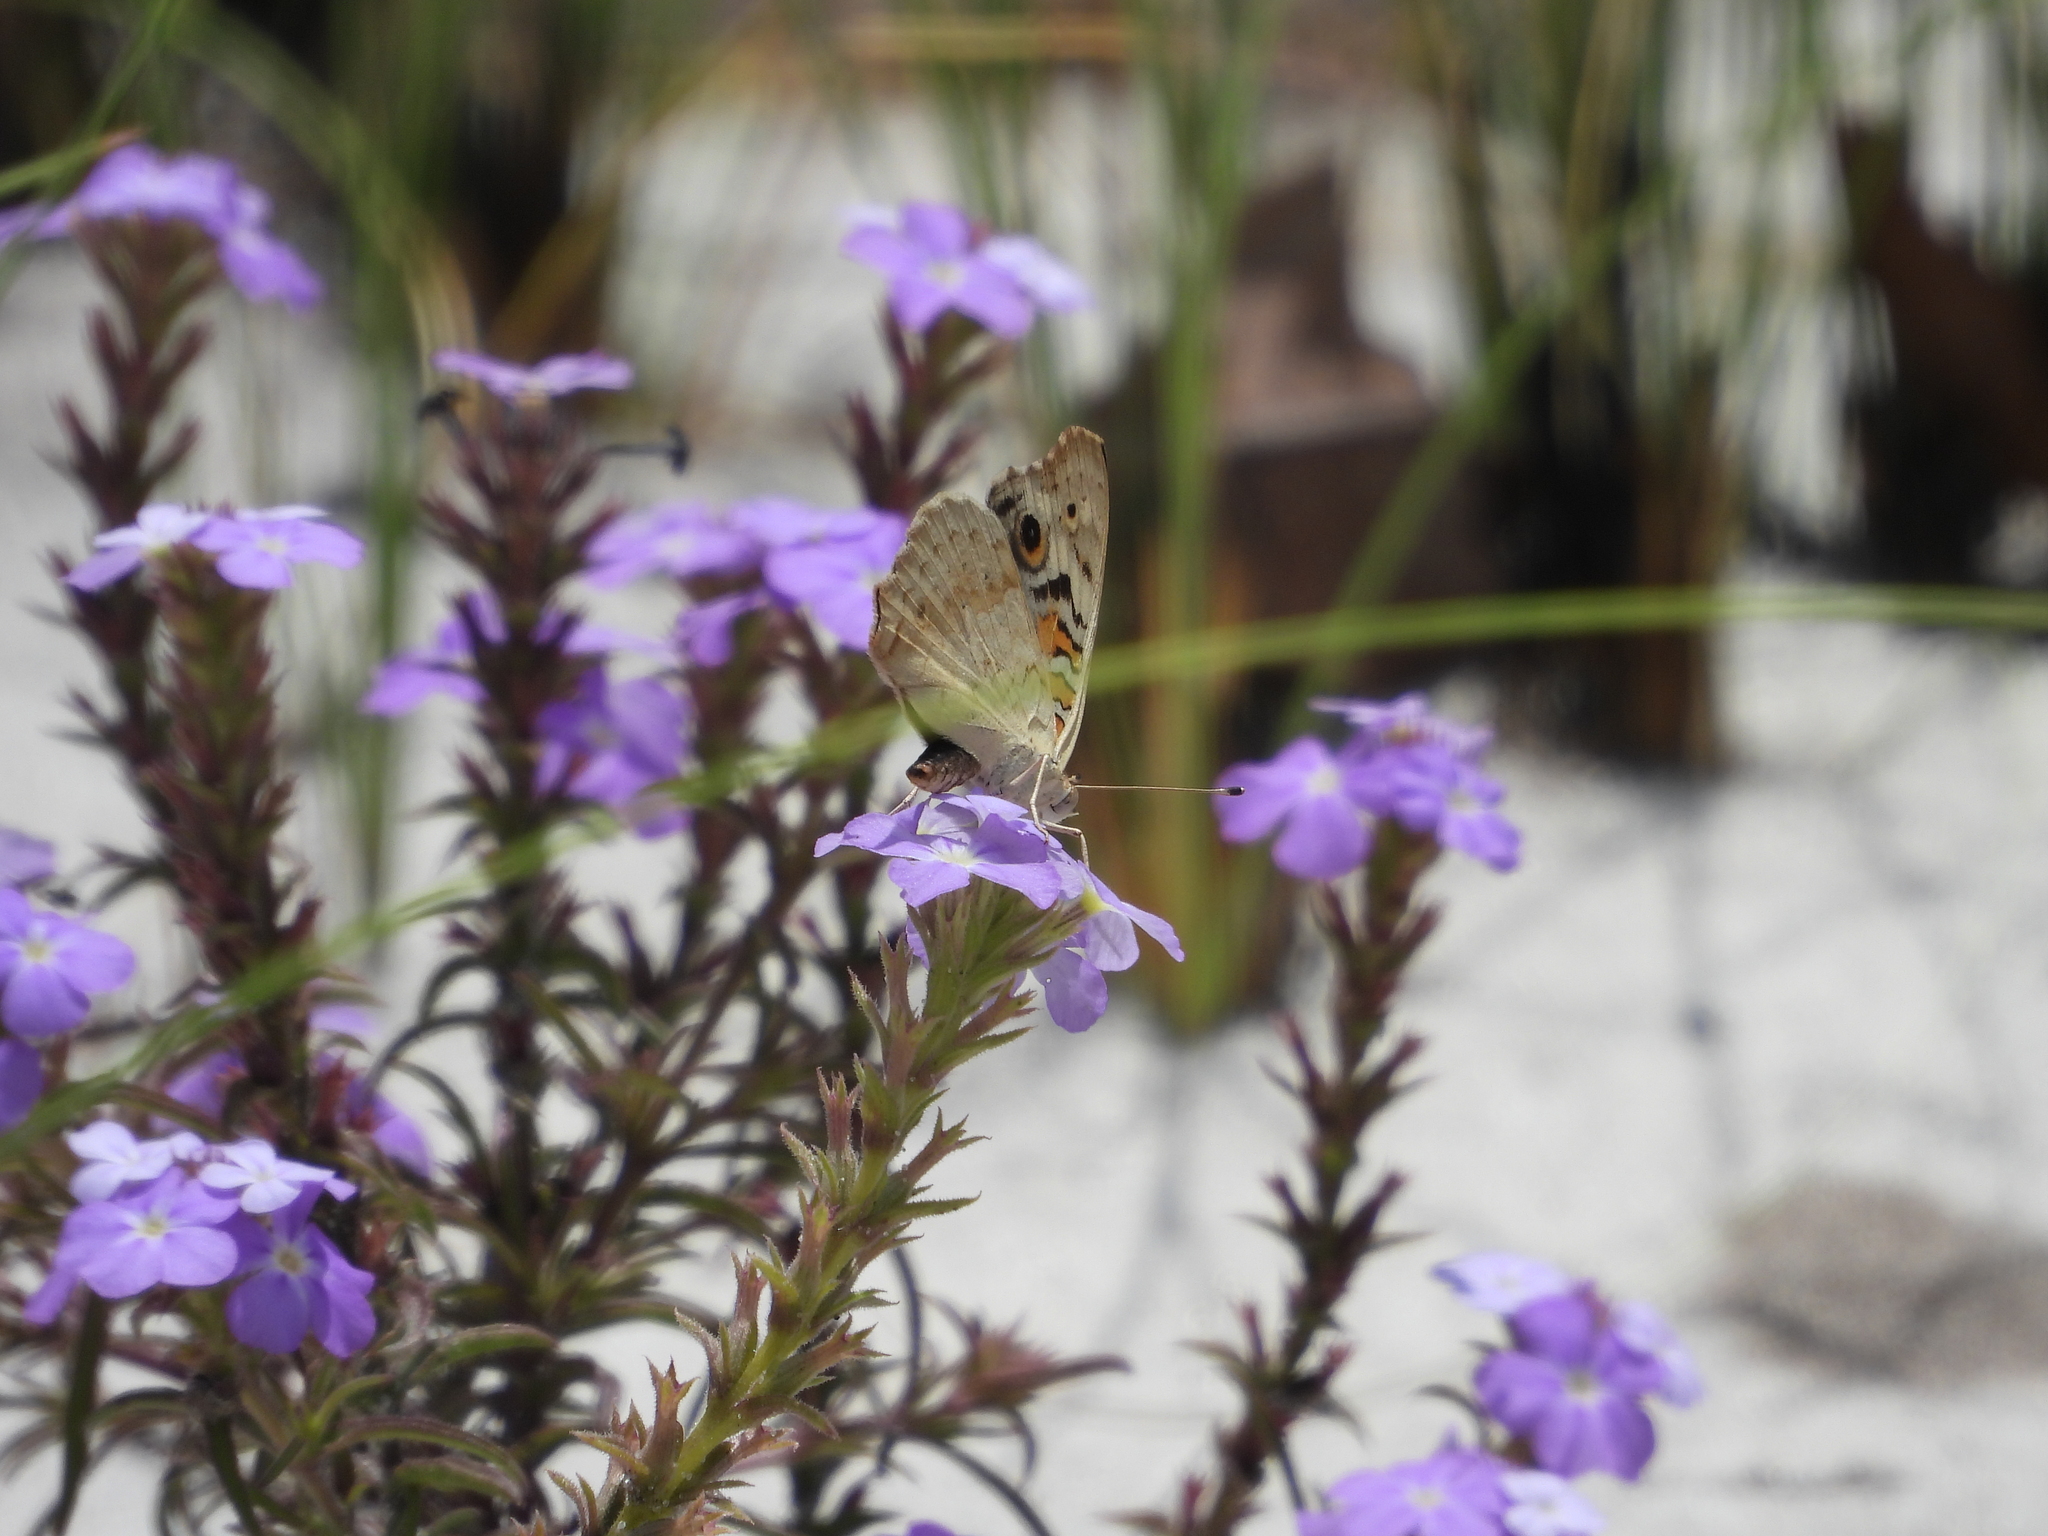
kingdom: Animalia
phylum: Arthropoda
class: Insecta
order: Lepidoptera
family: Nymphalidae
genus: Junonia
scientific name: Junonia orithya
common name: Blue pansy
